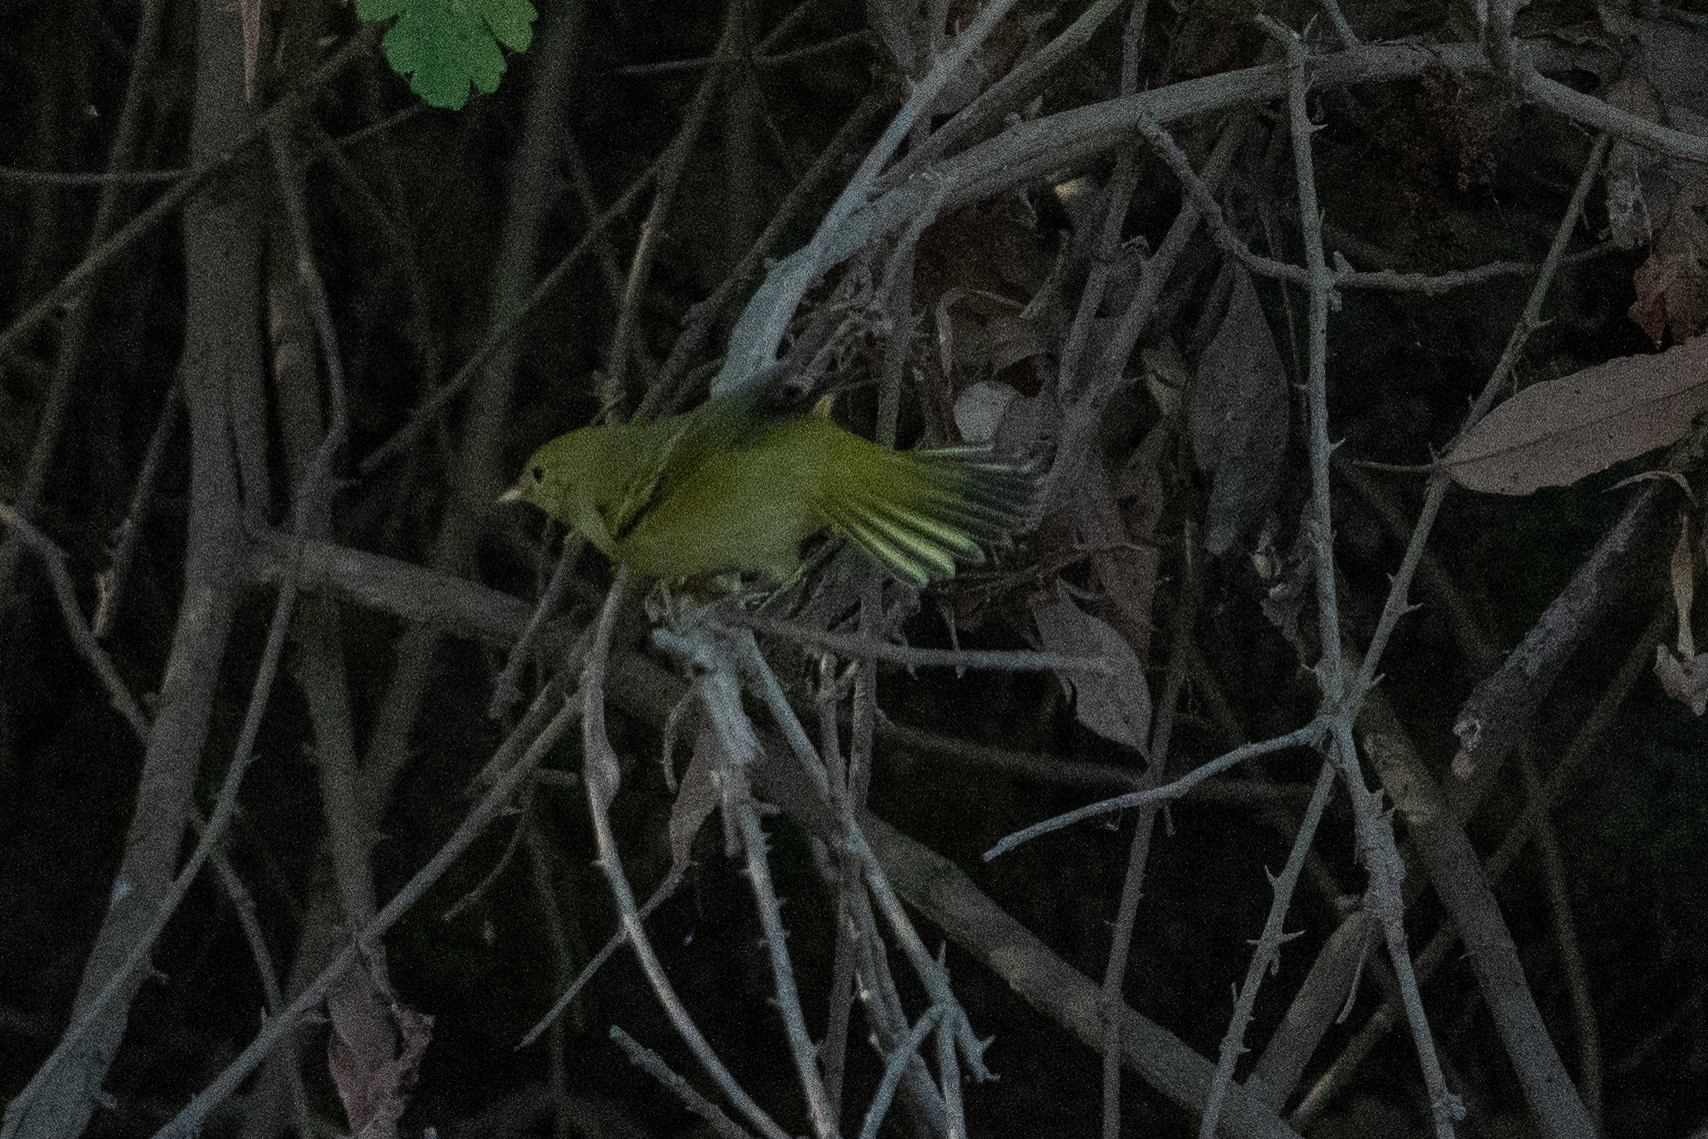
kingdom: Animalia
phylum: Chordata
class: Aves
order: Passeriformes
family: Parulidae
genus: Setophaga
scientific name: Setophaga petechia
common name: Yellow warbler
